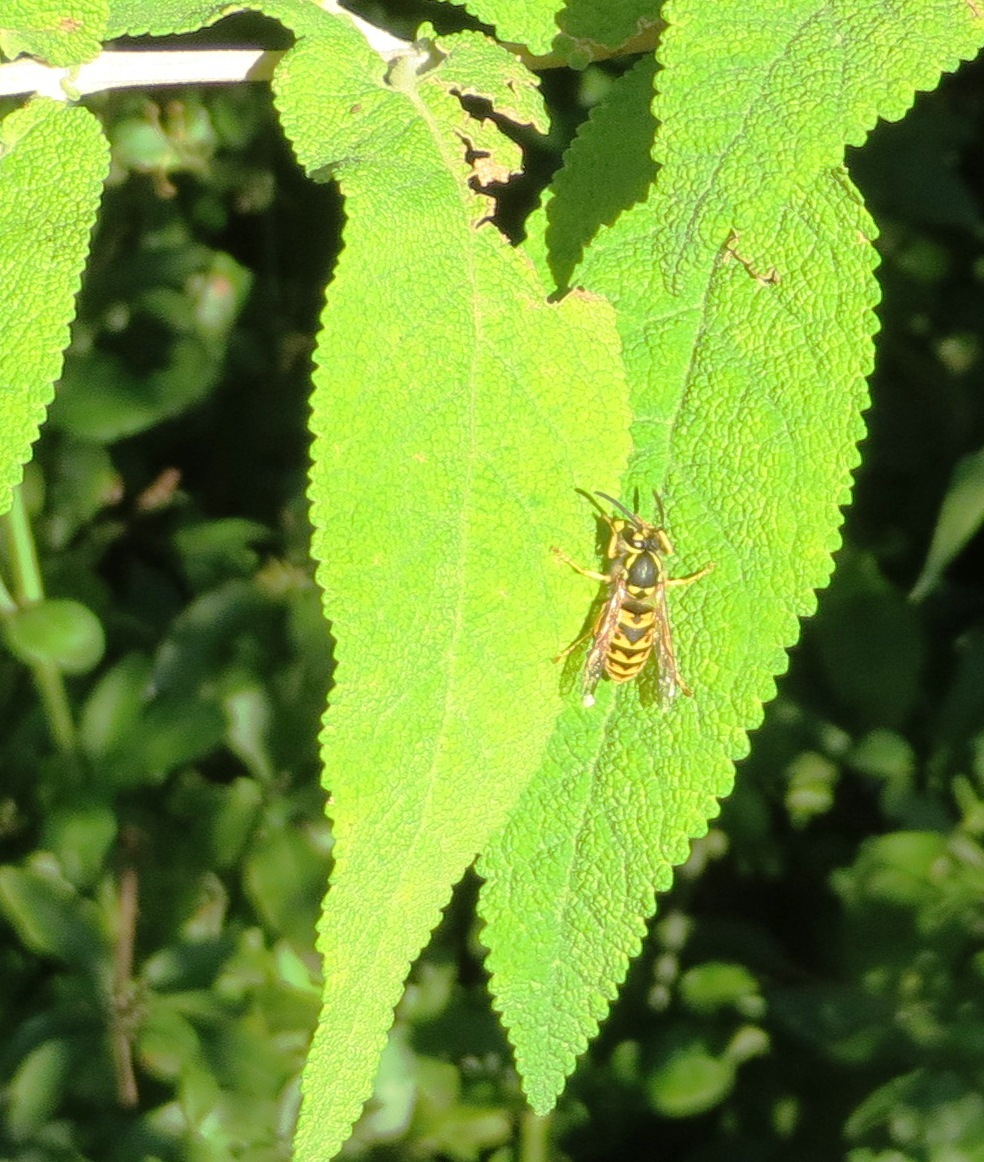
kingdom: Animalia
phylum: Arthropoda
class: Insecta
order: Hymenoptera
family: Vespidae
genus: Vespula
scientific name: Vespula germanica
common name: German wasp
